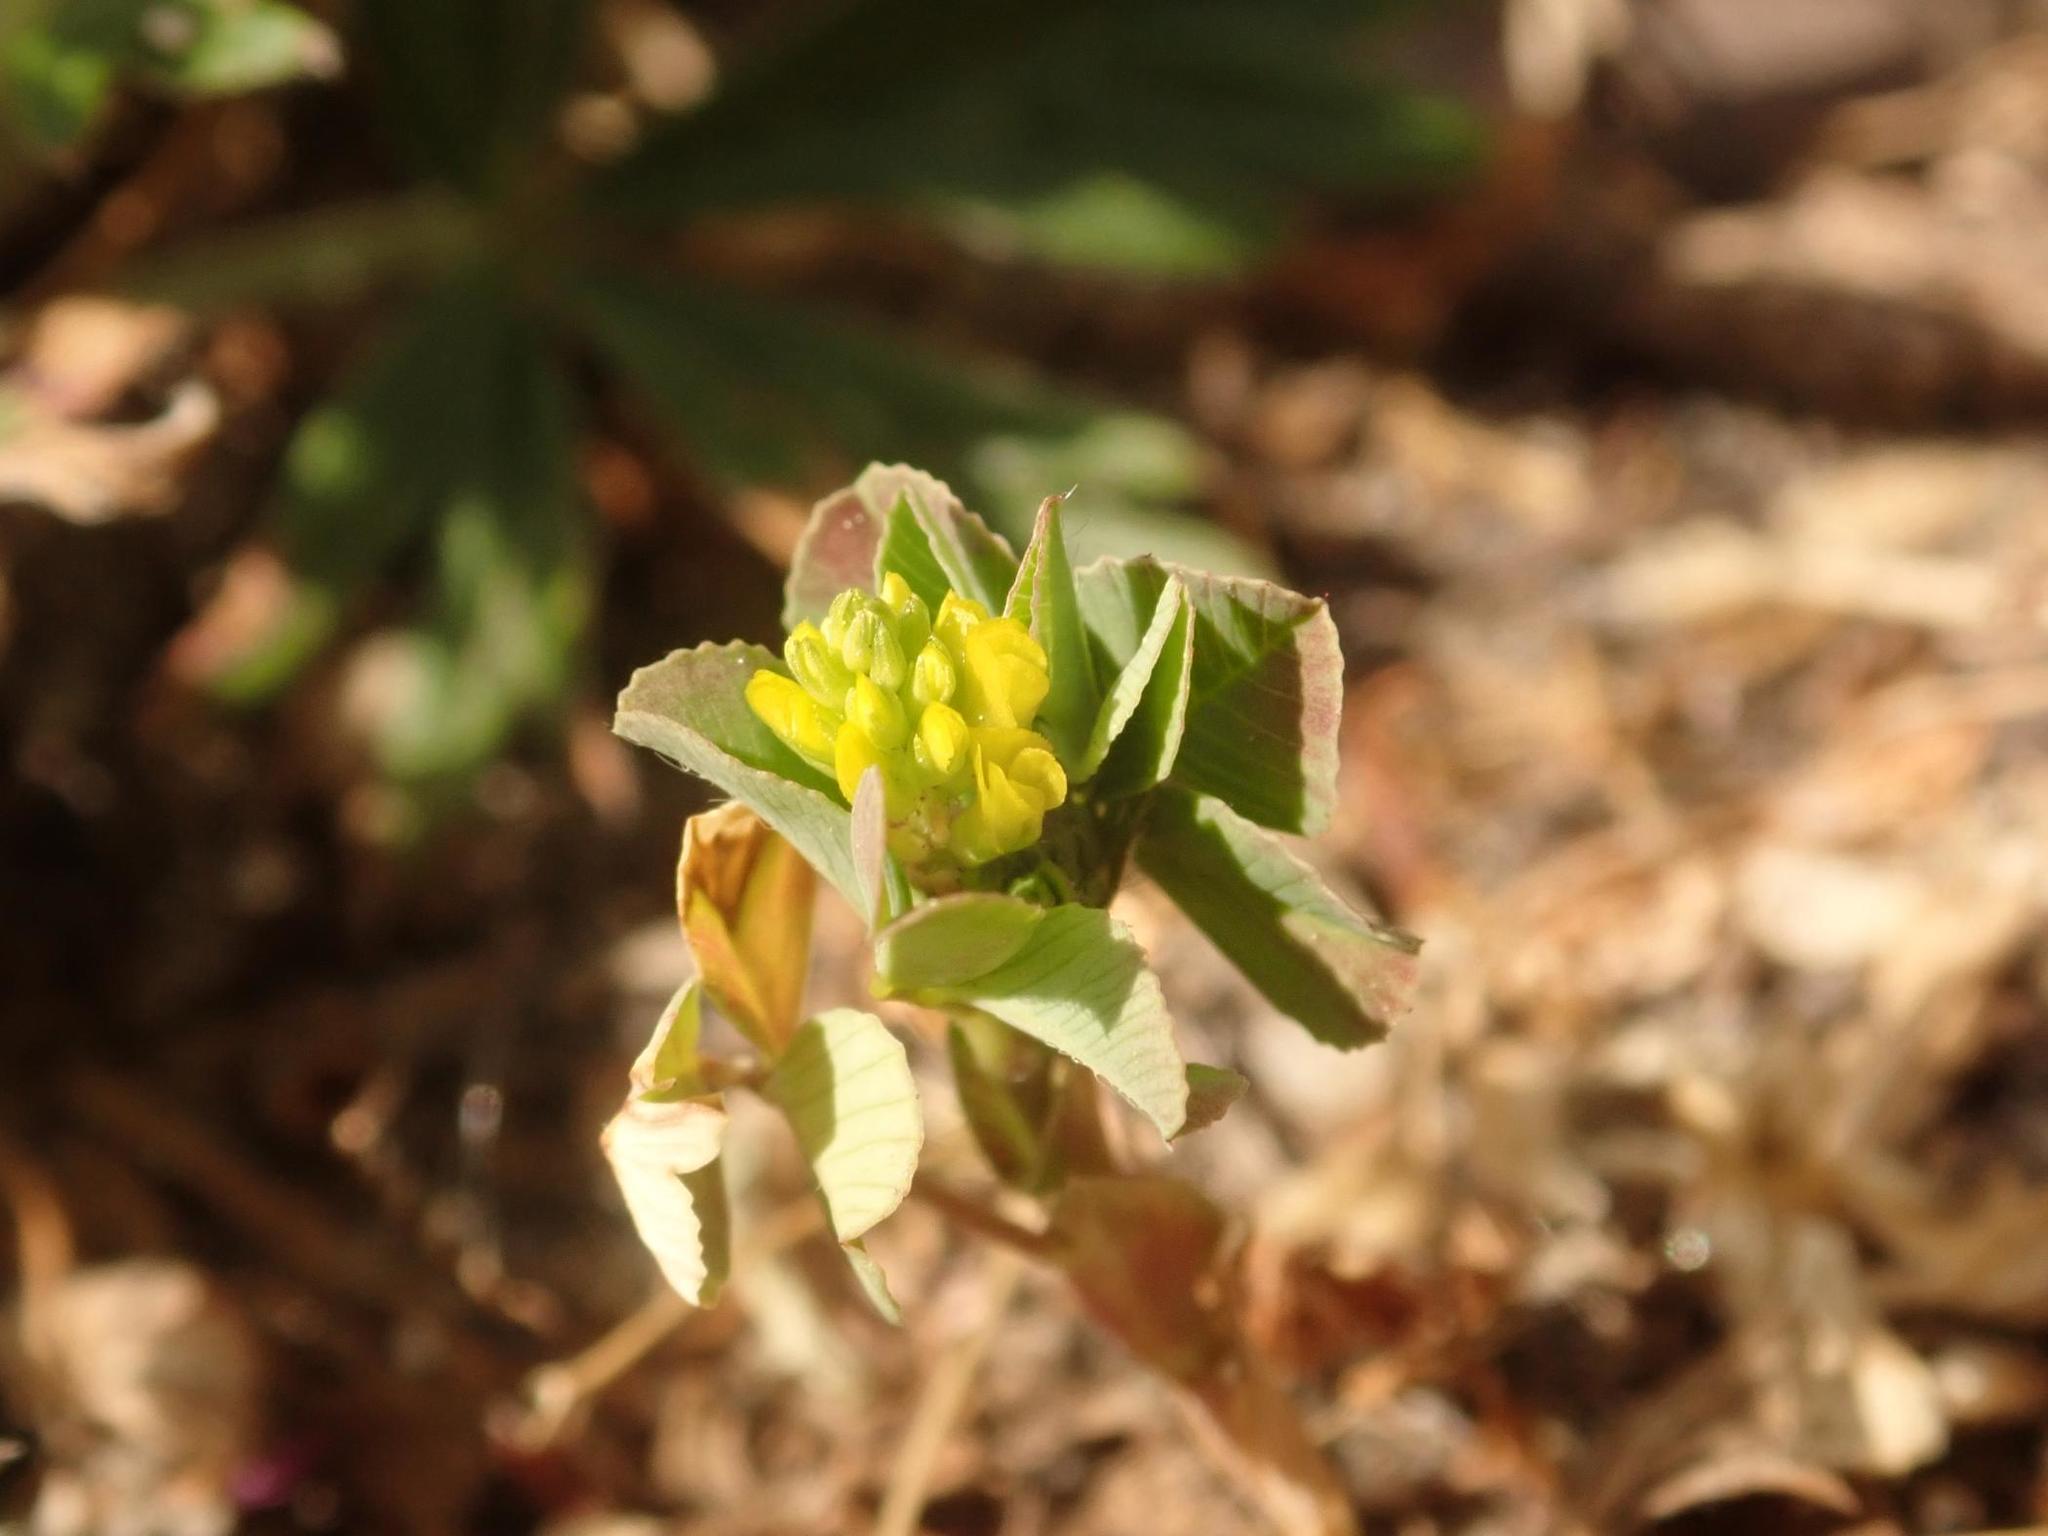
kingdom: Plantae
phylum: Tracheophyta
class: Magnoliopsida
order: Fabales
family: Fabaceae
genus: Trifolium
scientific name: Trifolium dubium
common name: Suckling clover
